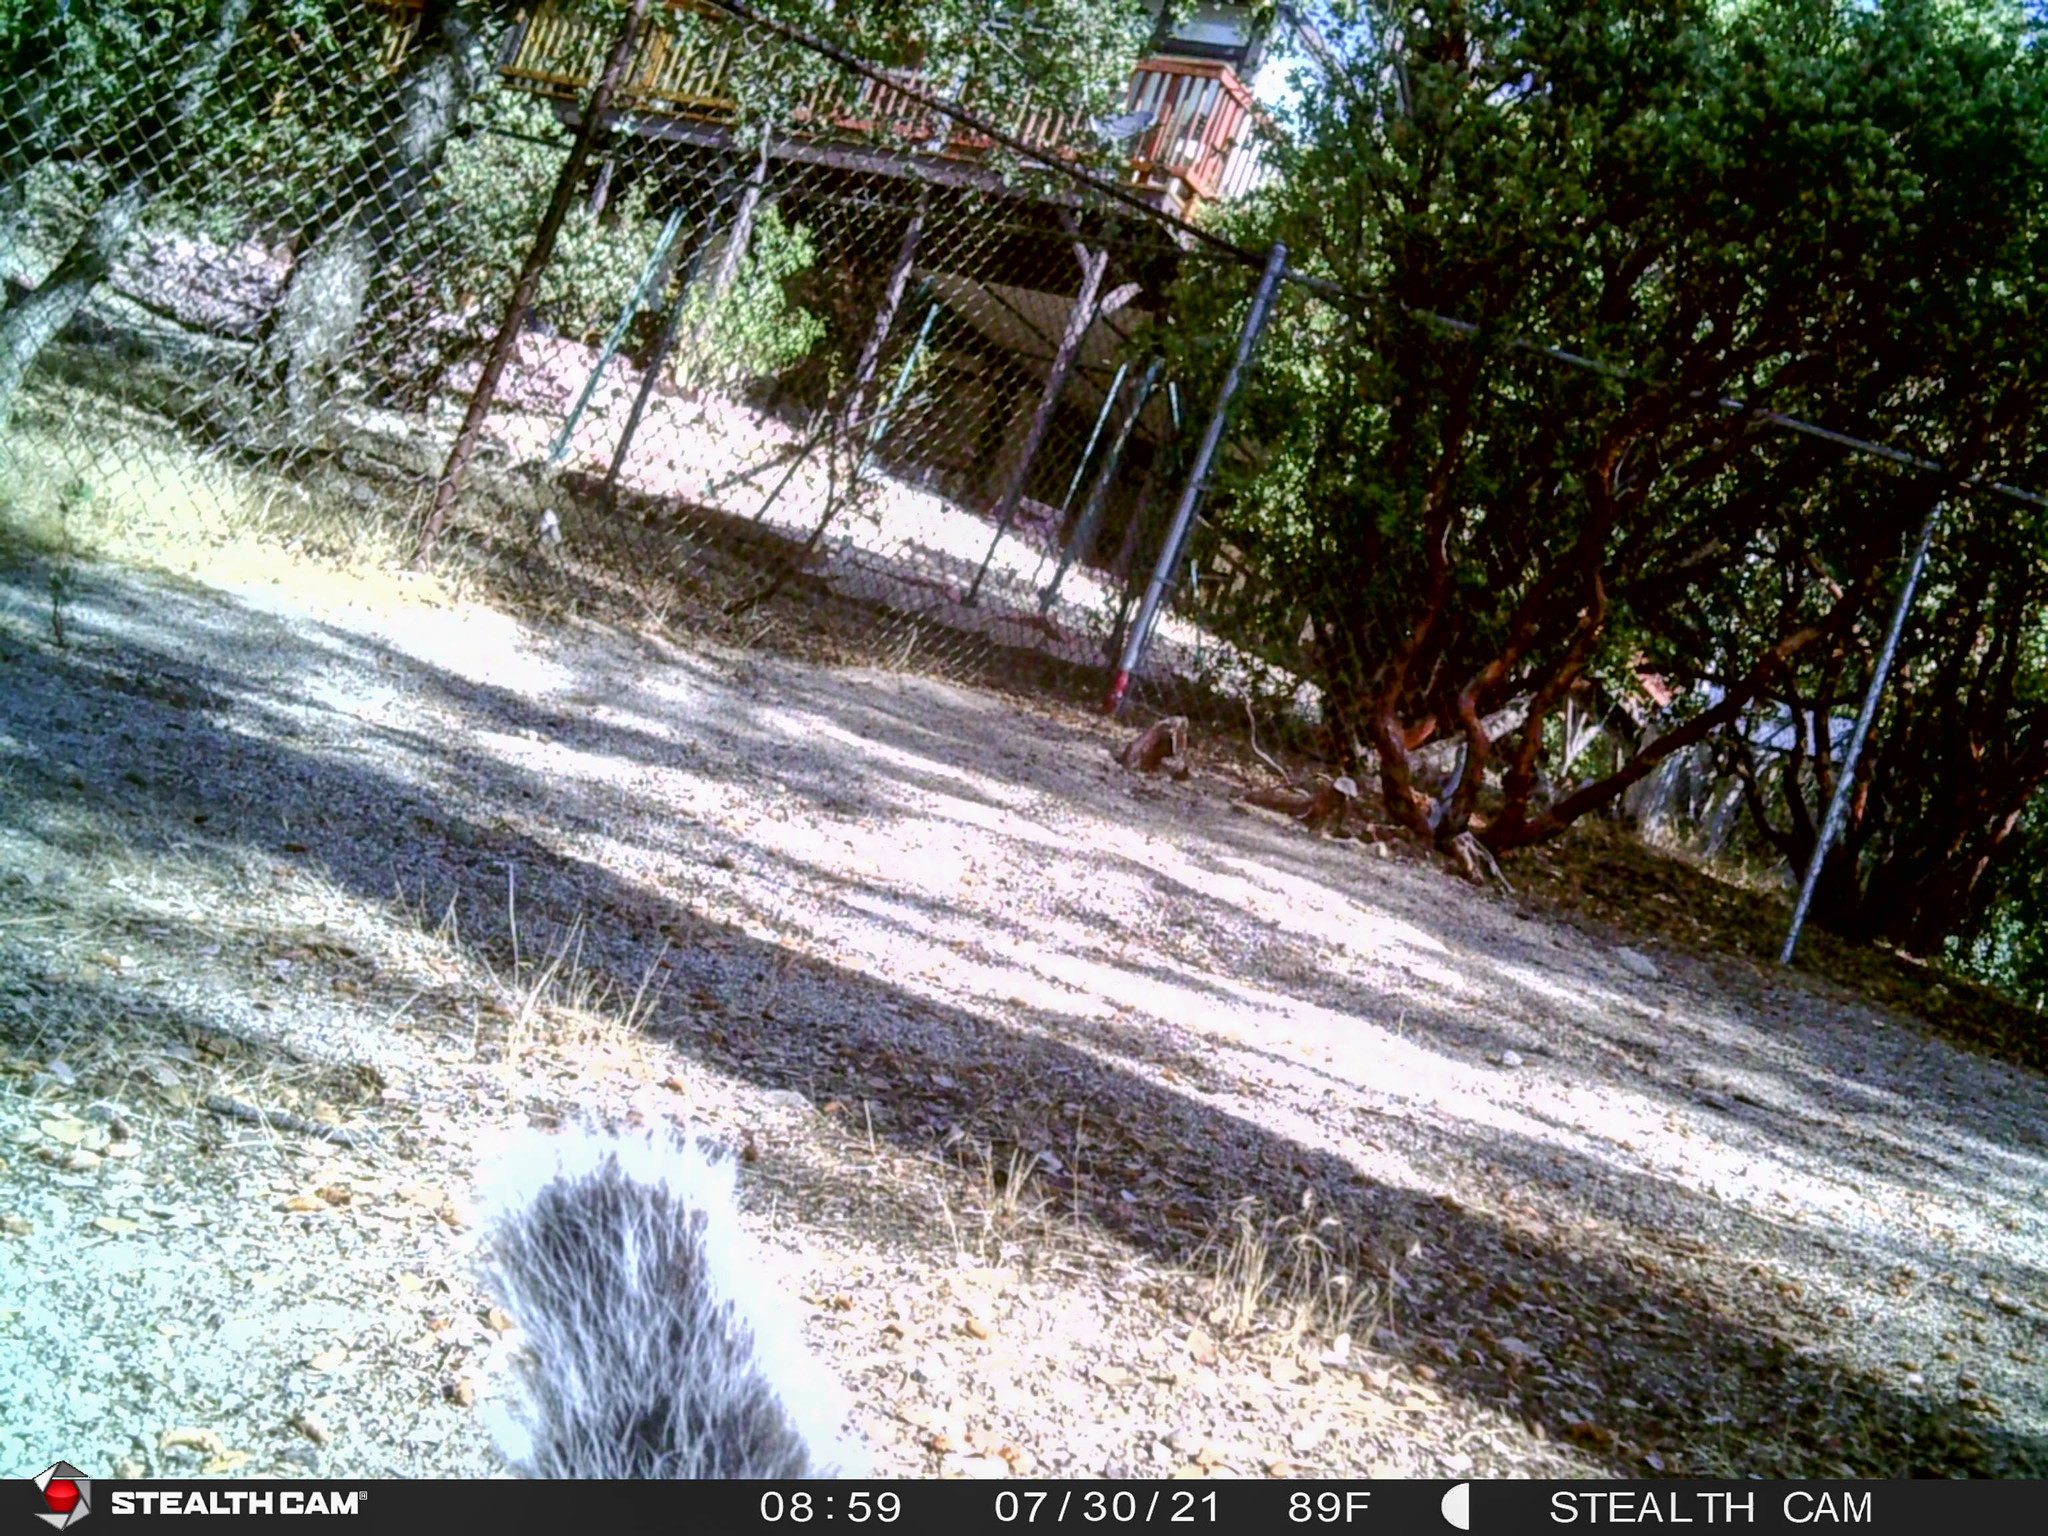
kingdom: Animalia
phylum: Chordata
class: Mammalia
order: Rodentia
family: Sciuridae
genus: Sciurus
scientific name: Sciurus griseus
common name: Western gray squirrel
